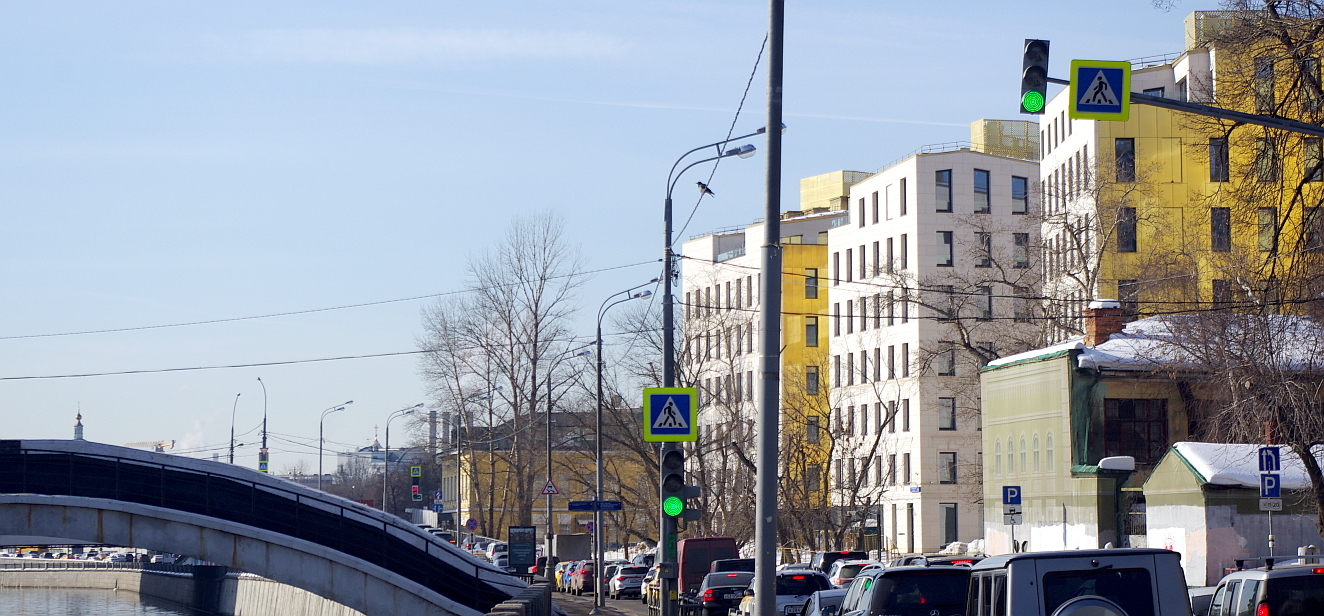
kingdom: Animalia
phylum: Chordata
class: Aves
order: Passeriformes
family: Corvidae
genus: Corvus
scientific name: Corvus cornix
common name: Hooded crow
